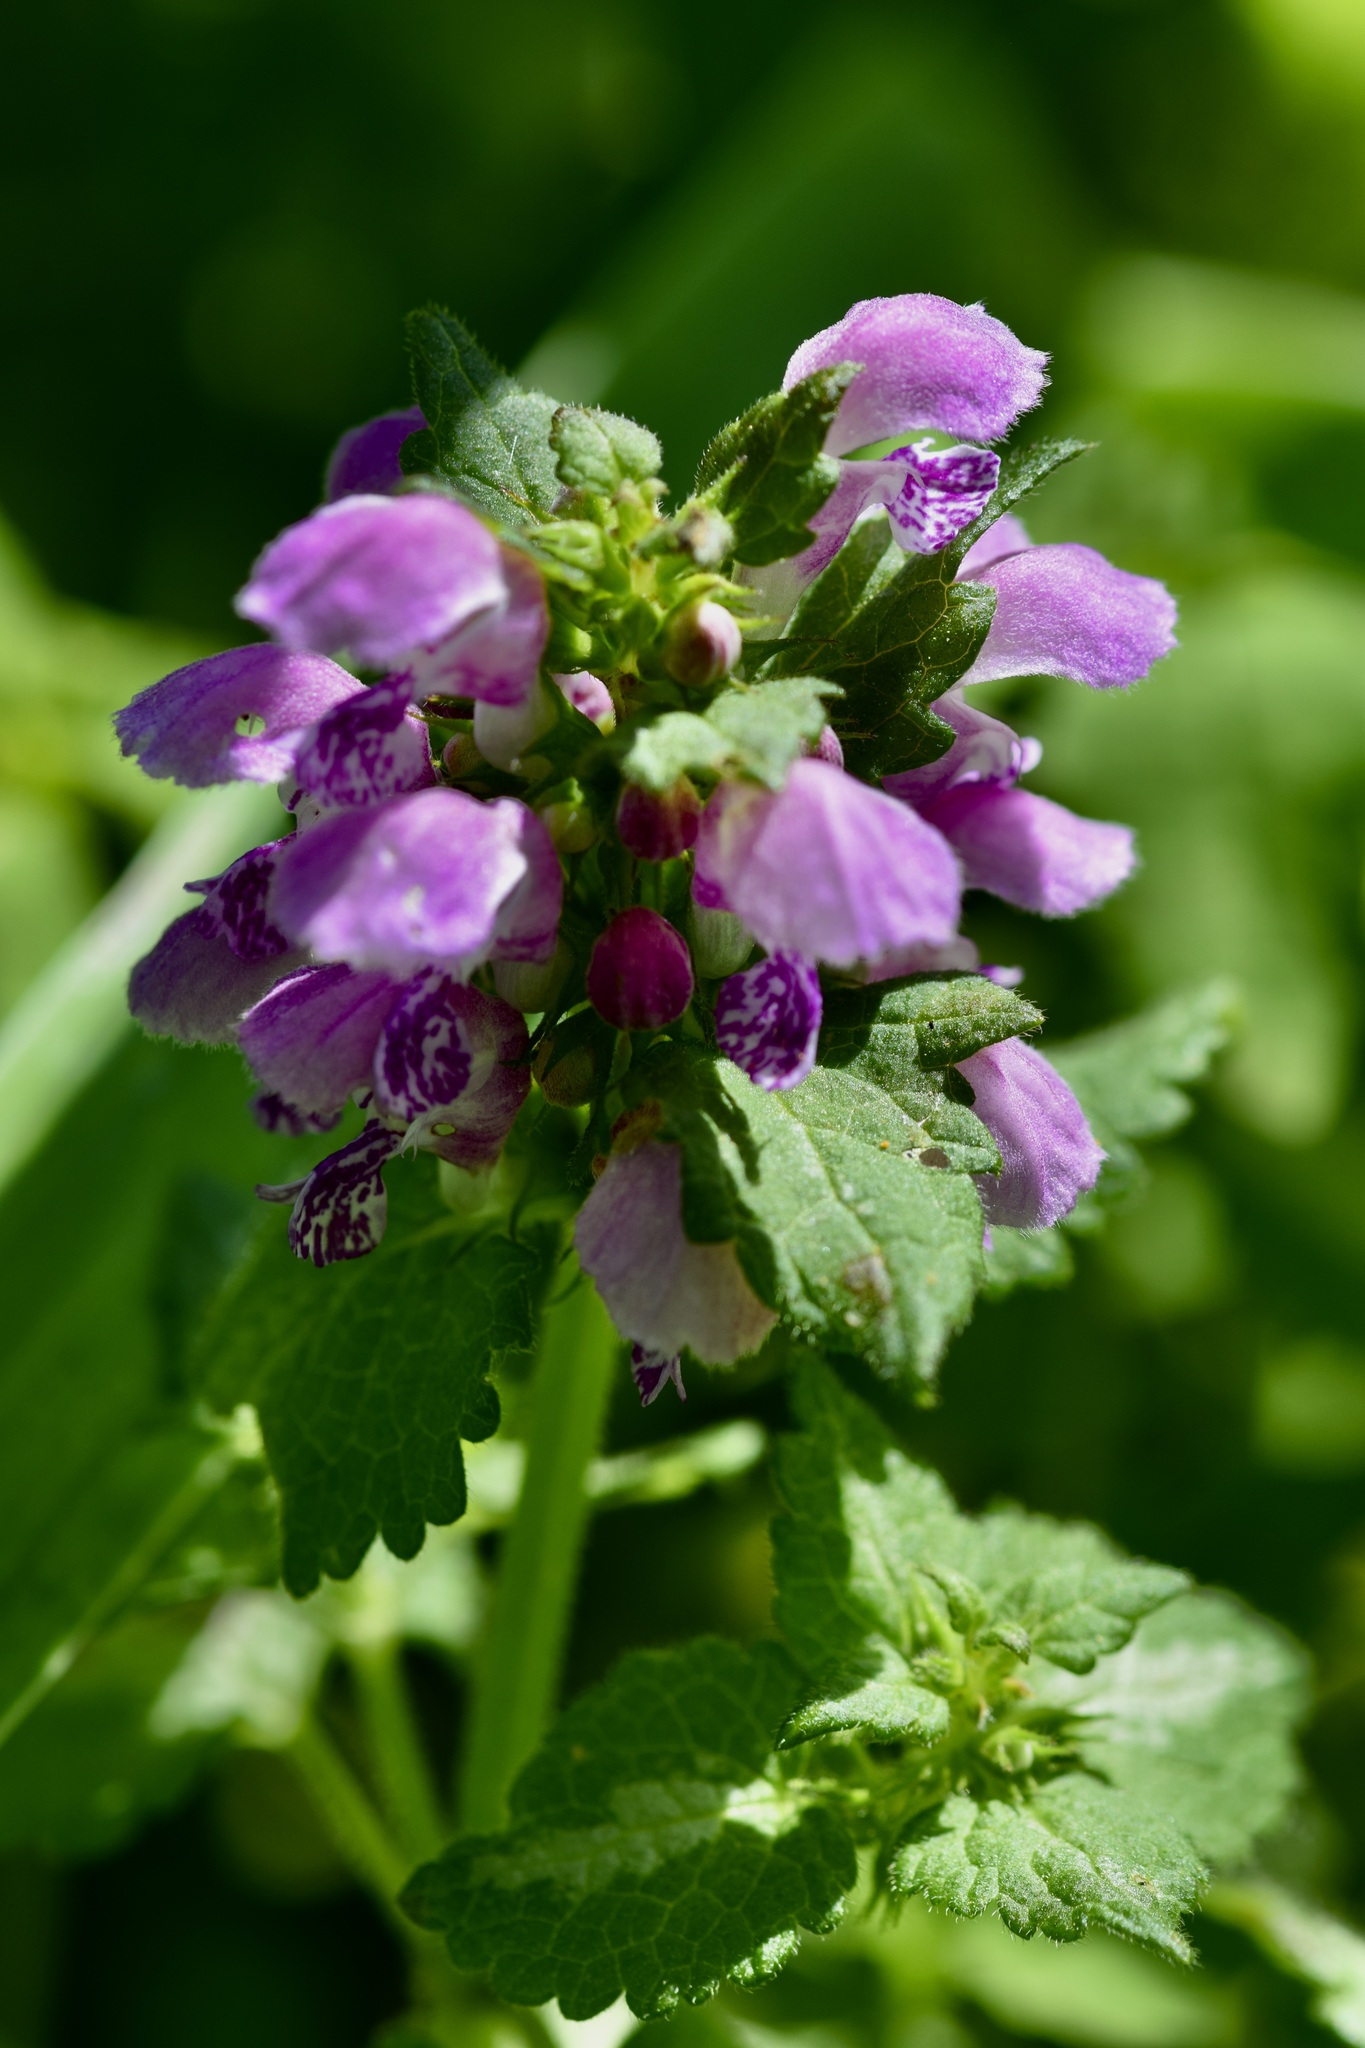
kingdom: Plantae
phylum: Tracheophyta
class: Magnoliopsida
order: Lamiales
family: Lamiaceae
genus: Lamium
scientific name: Lamium maculatum
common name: Spotted dead-nettle
